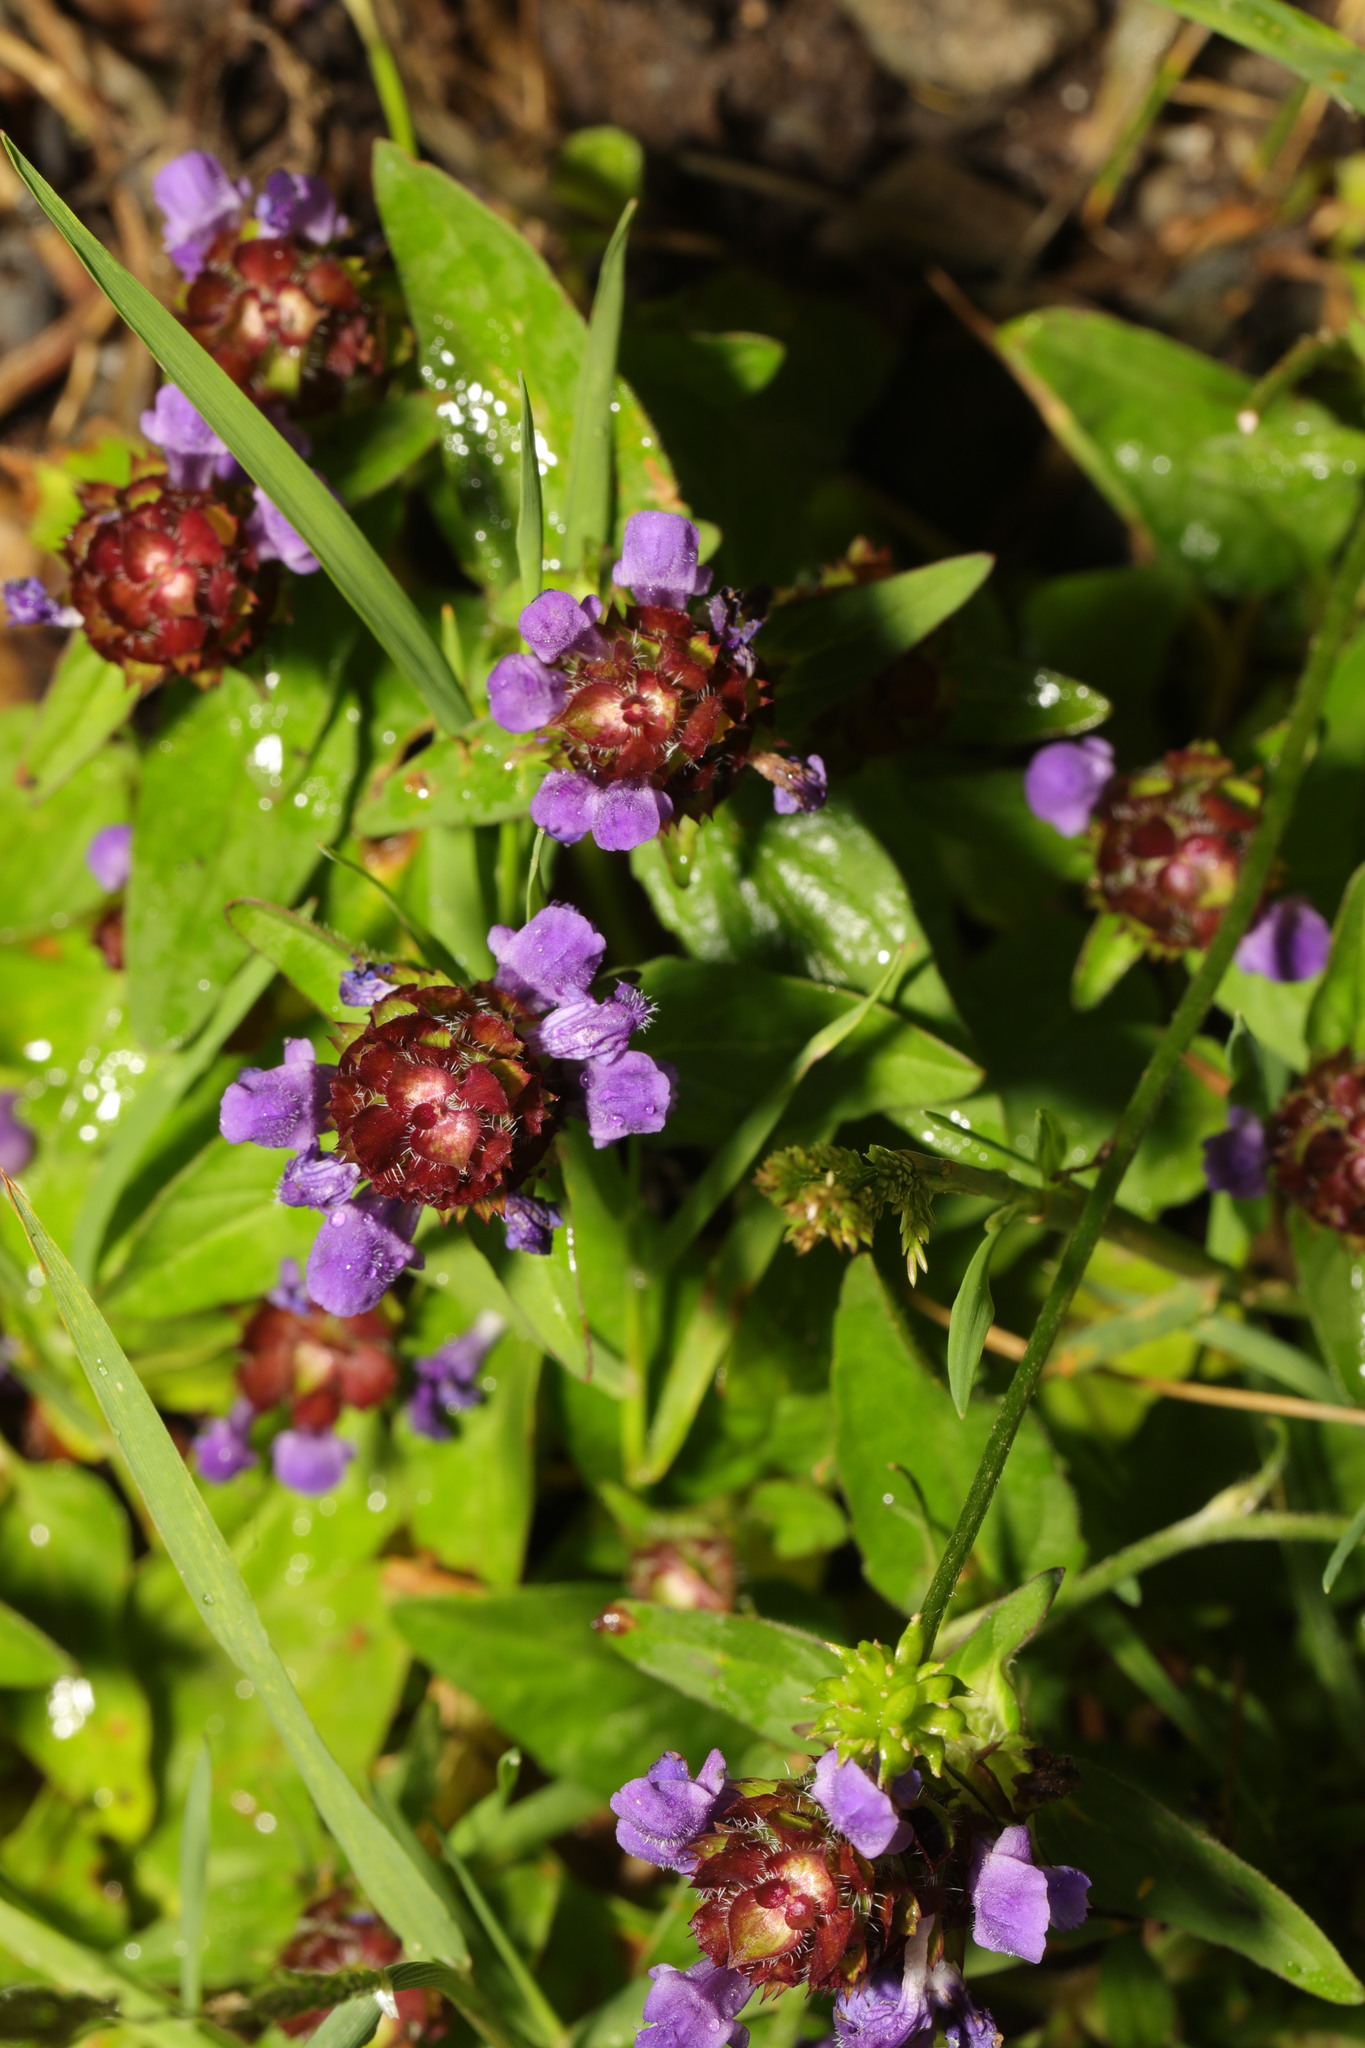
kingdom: Plantae
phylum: Tracheophyta
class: Magnoliopsida
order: Lamiales
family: Lamiaceae
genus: Prunella
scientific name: Prunella vulgaris
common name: Heal-all
